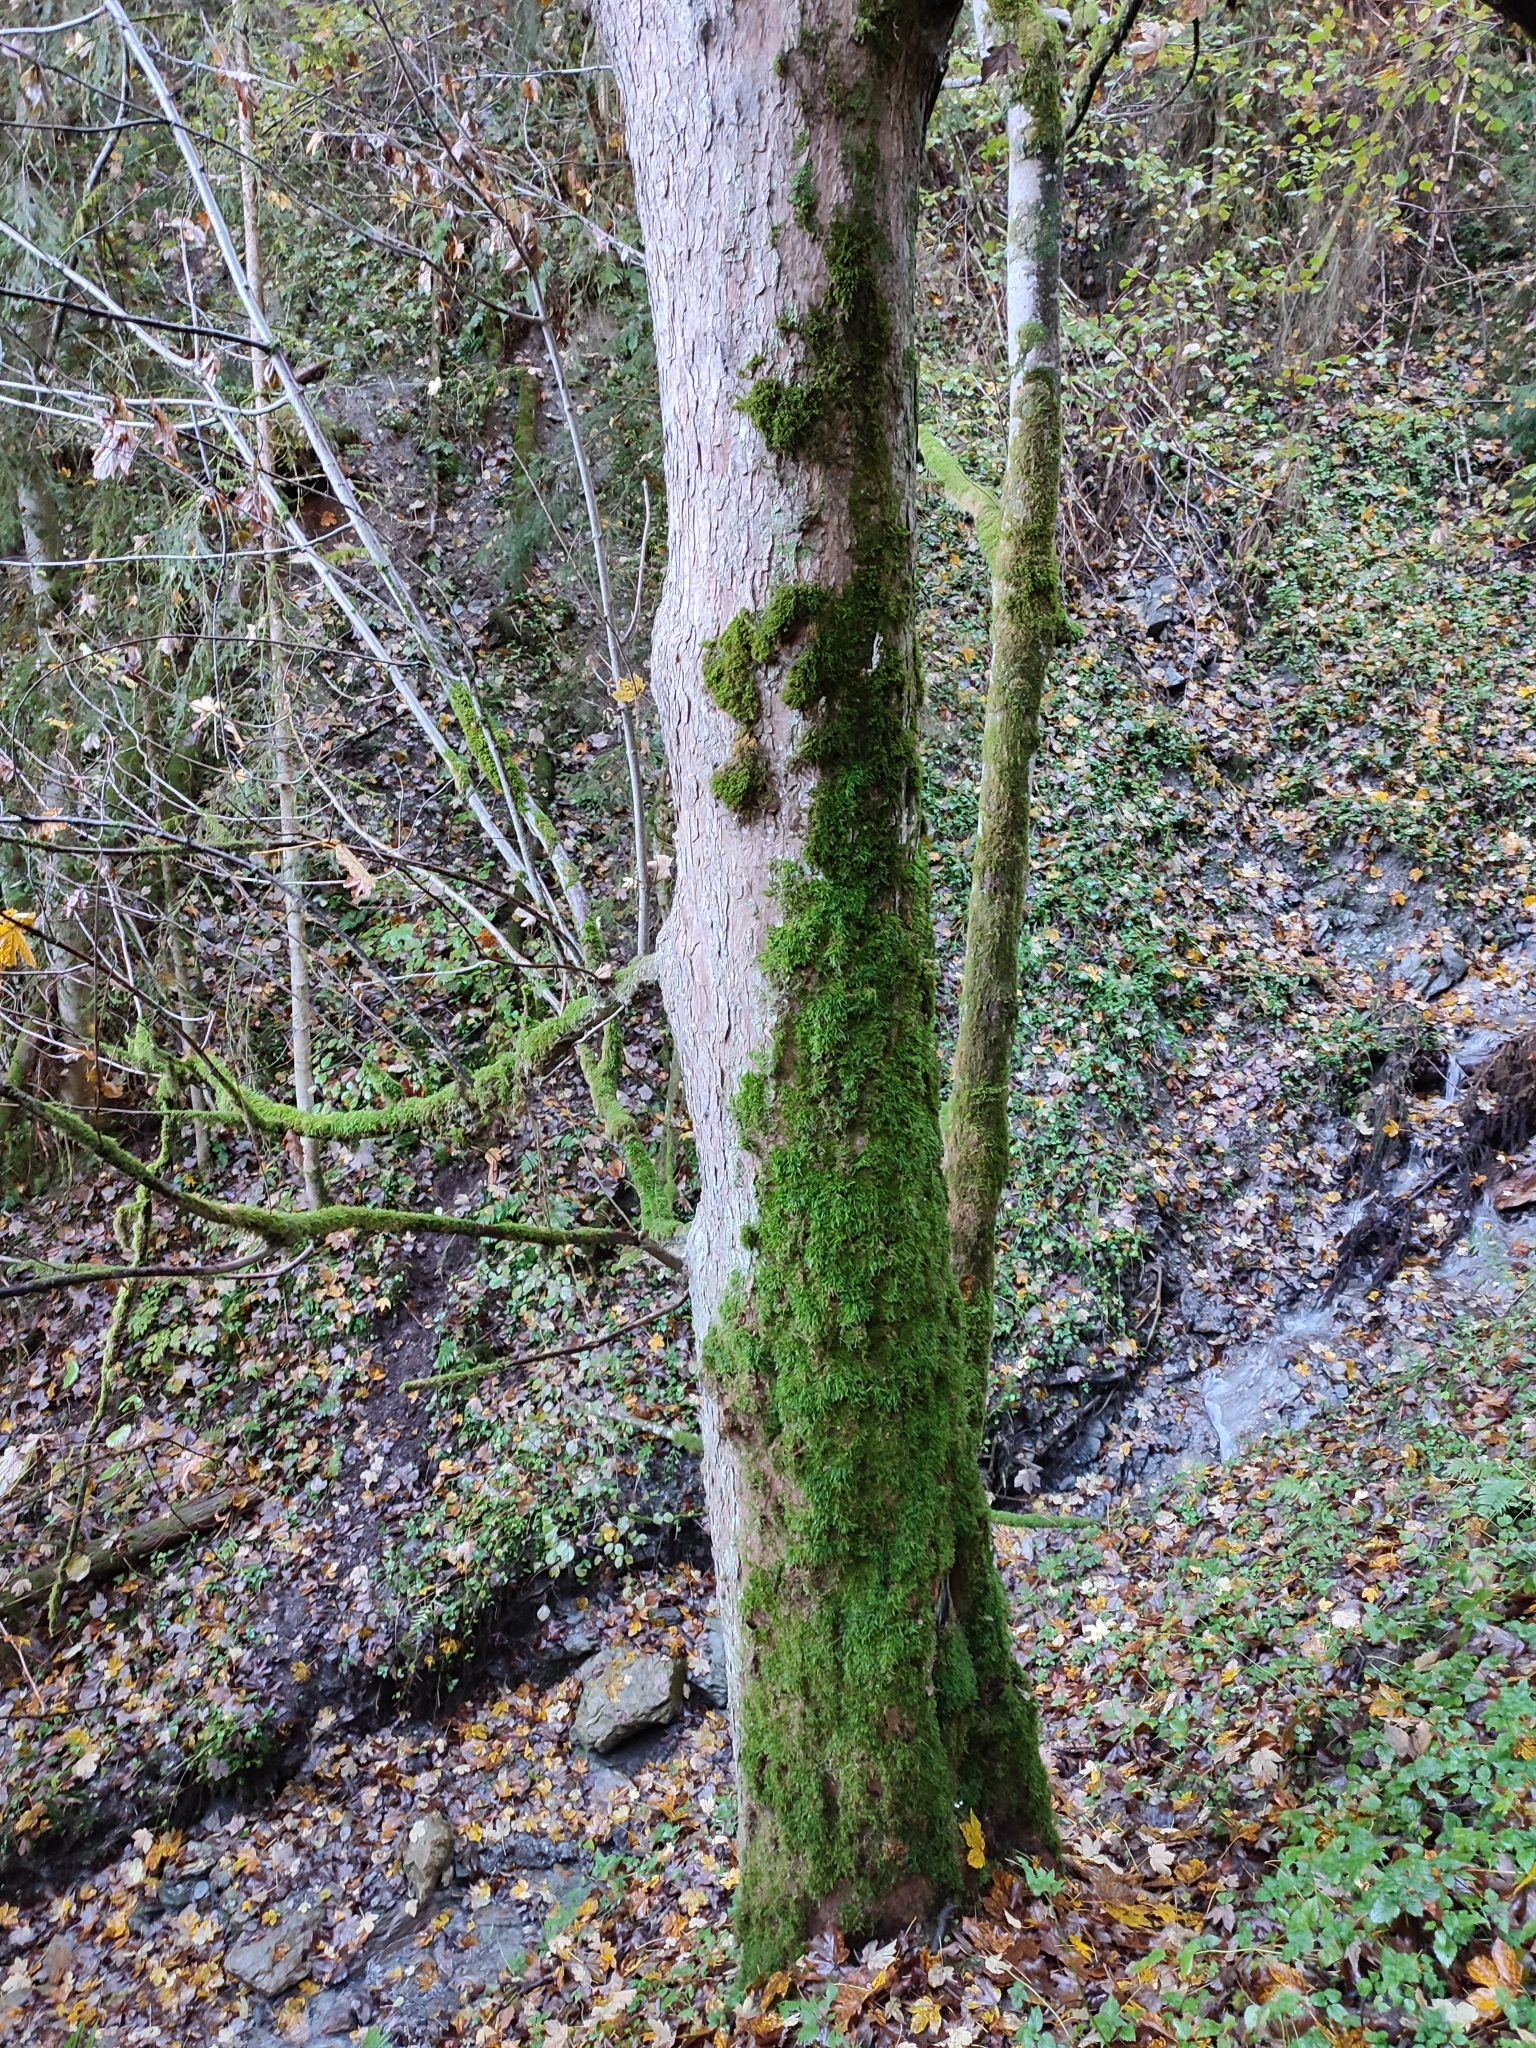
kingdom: Plantae
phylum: Tracheophyta
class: Magnoliopsida
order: Sapindales
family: Sapindaceae
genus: Acer
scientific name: Acer pseudoplatanus
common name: Sycamore
